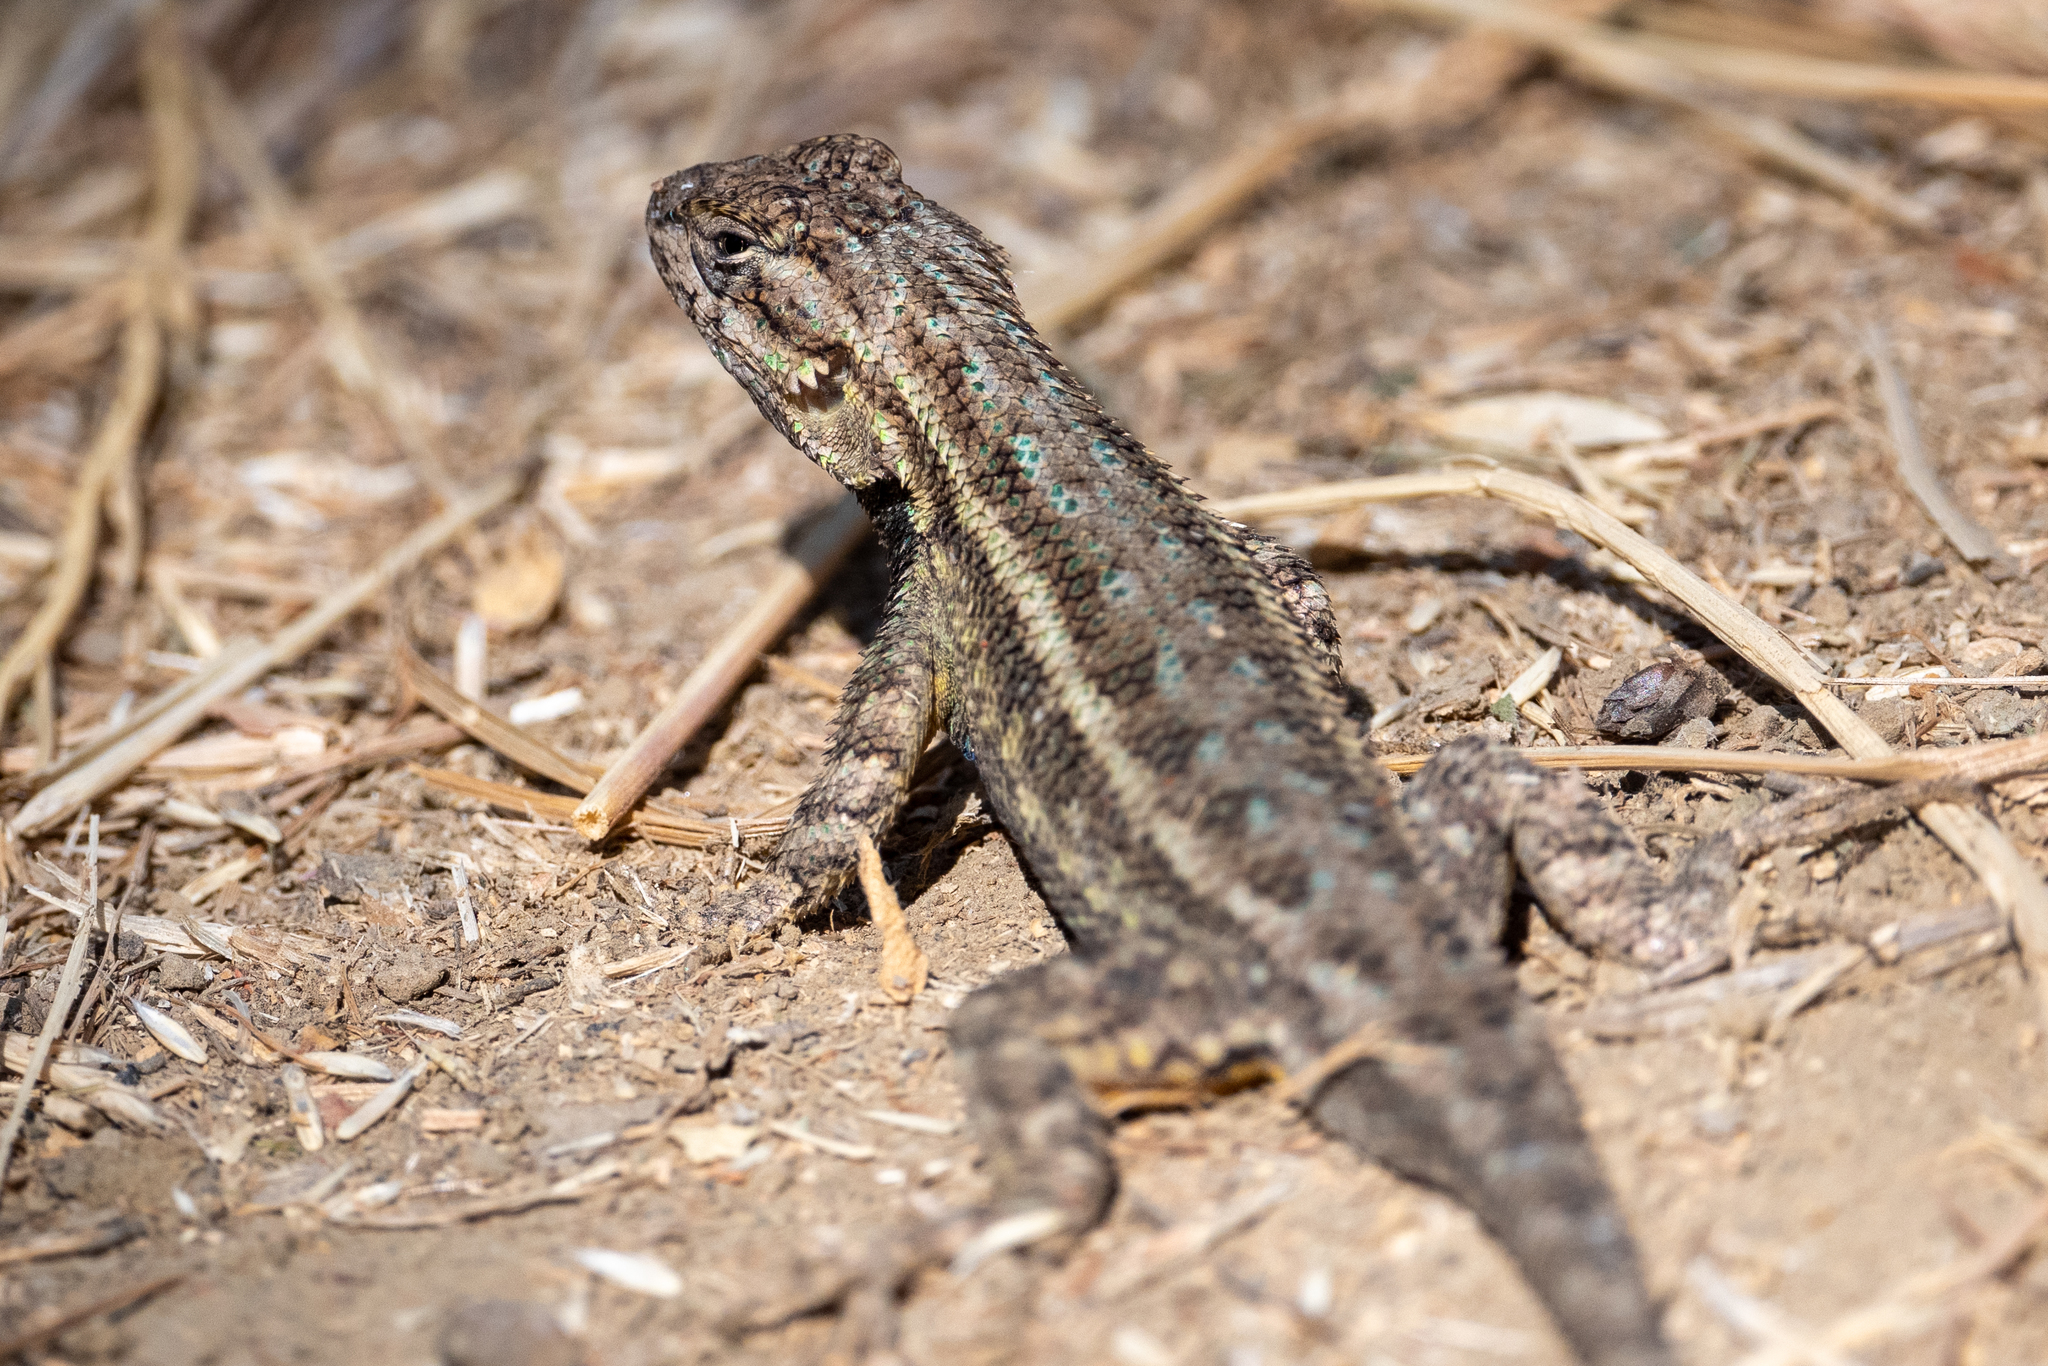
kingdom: Animalia
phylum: Chordata
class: Squamata
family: Phrynosomatidae
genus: Sceloporus
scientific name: Sceloporus occidentalis
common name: Western fence lizard
